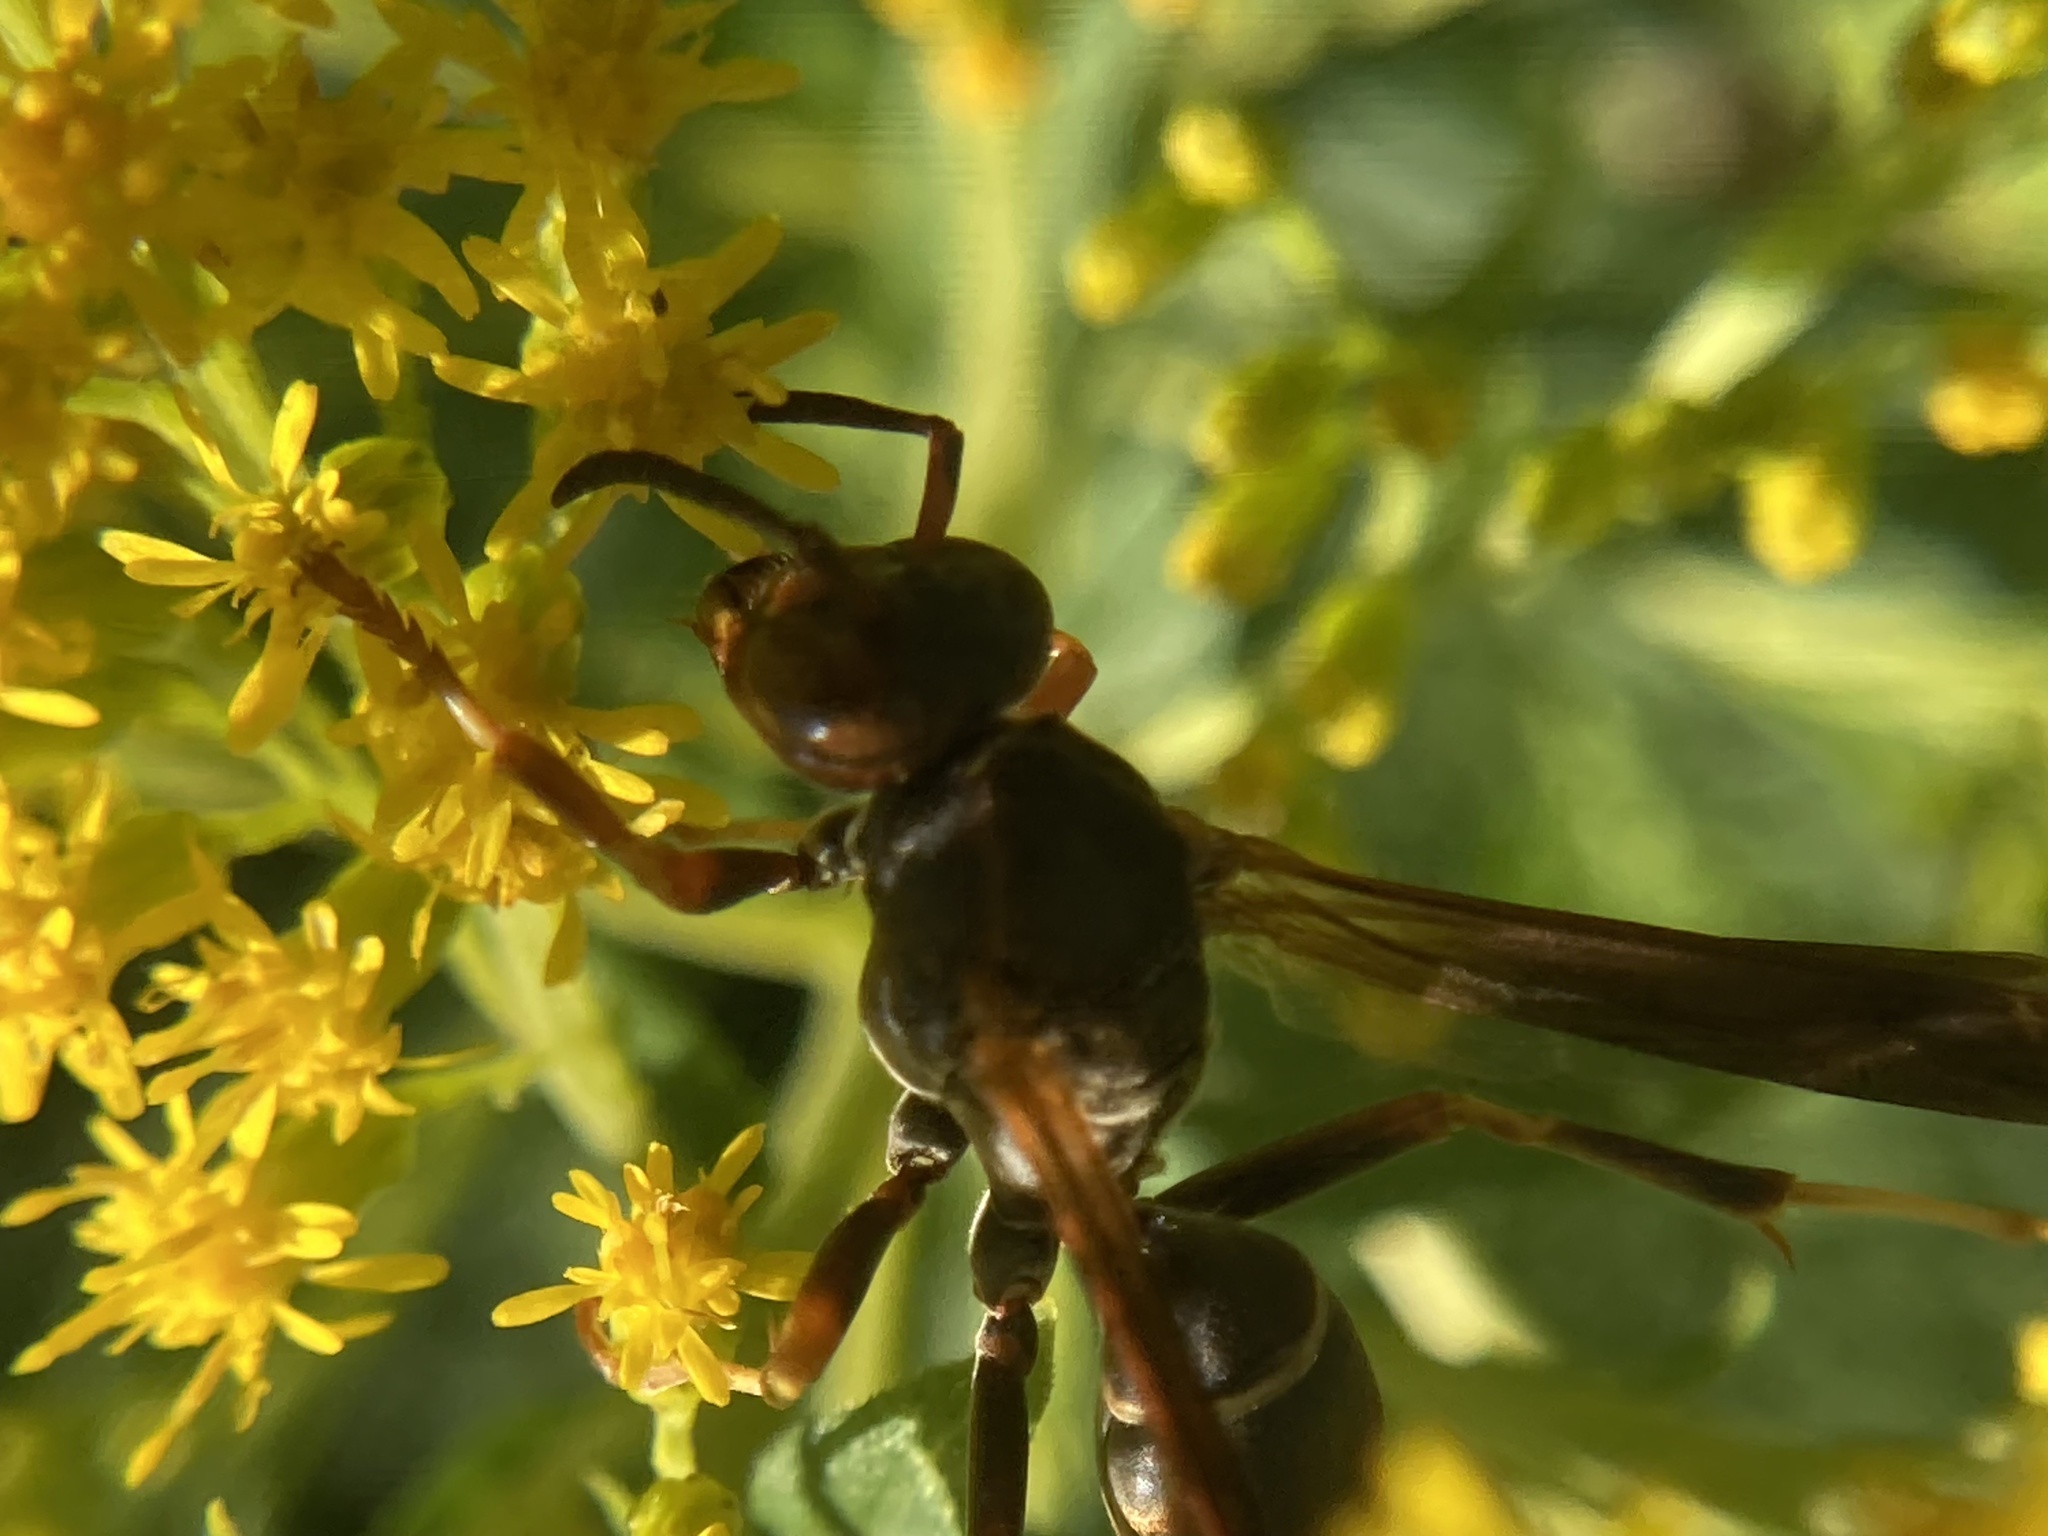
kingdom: Animalia
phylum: Arthropoda
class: Insecta
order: Hymenoptera
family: Eumenidae
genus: Polistes
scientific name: Polistes fuscatus
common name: Dark paper wasp
